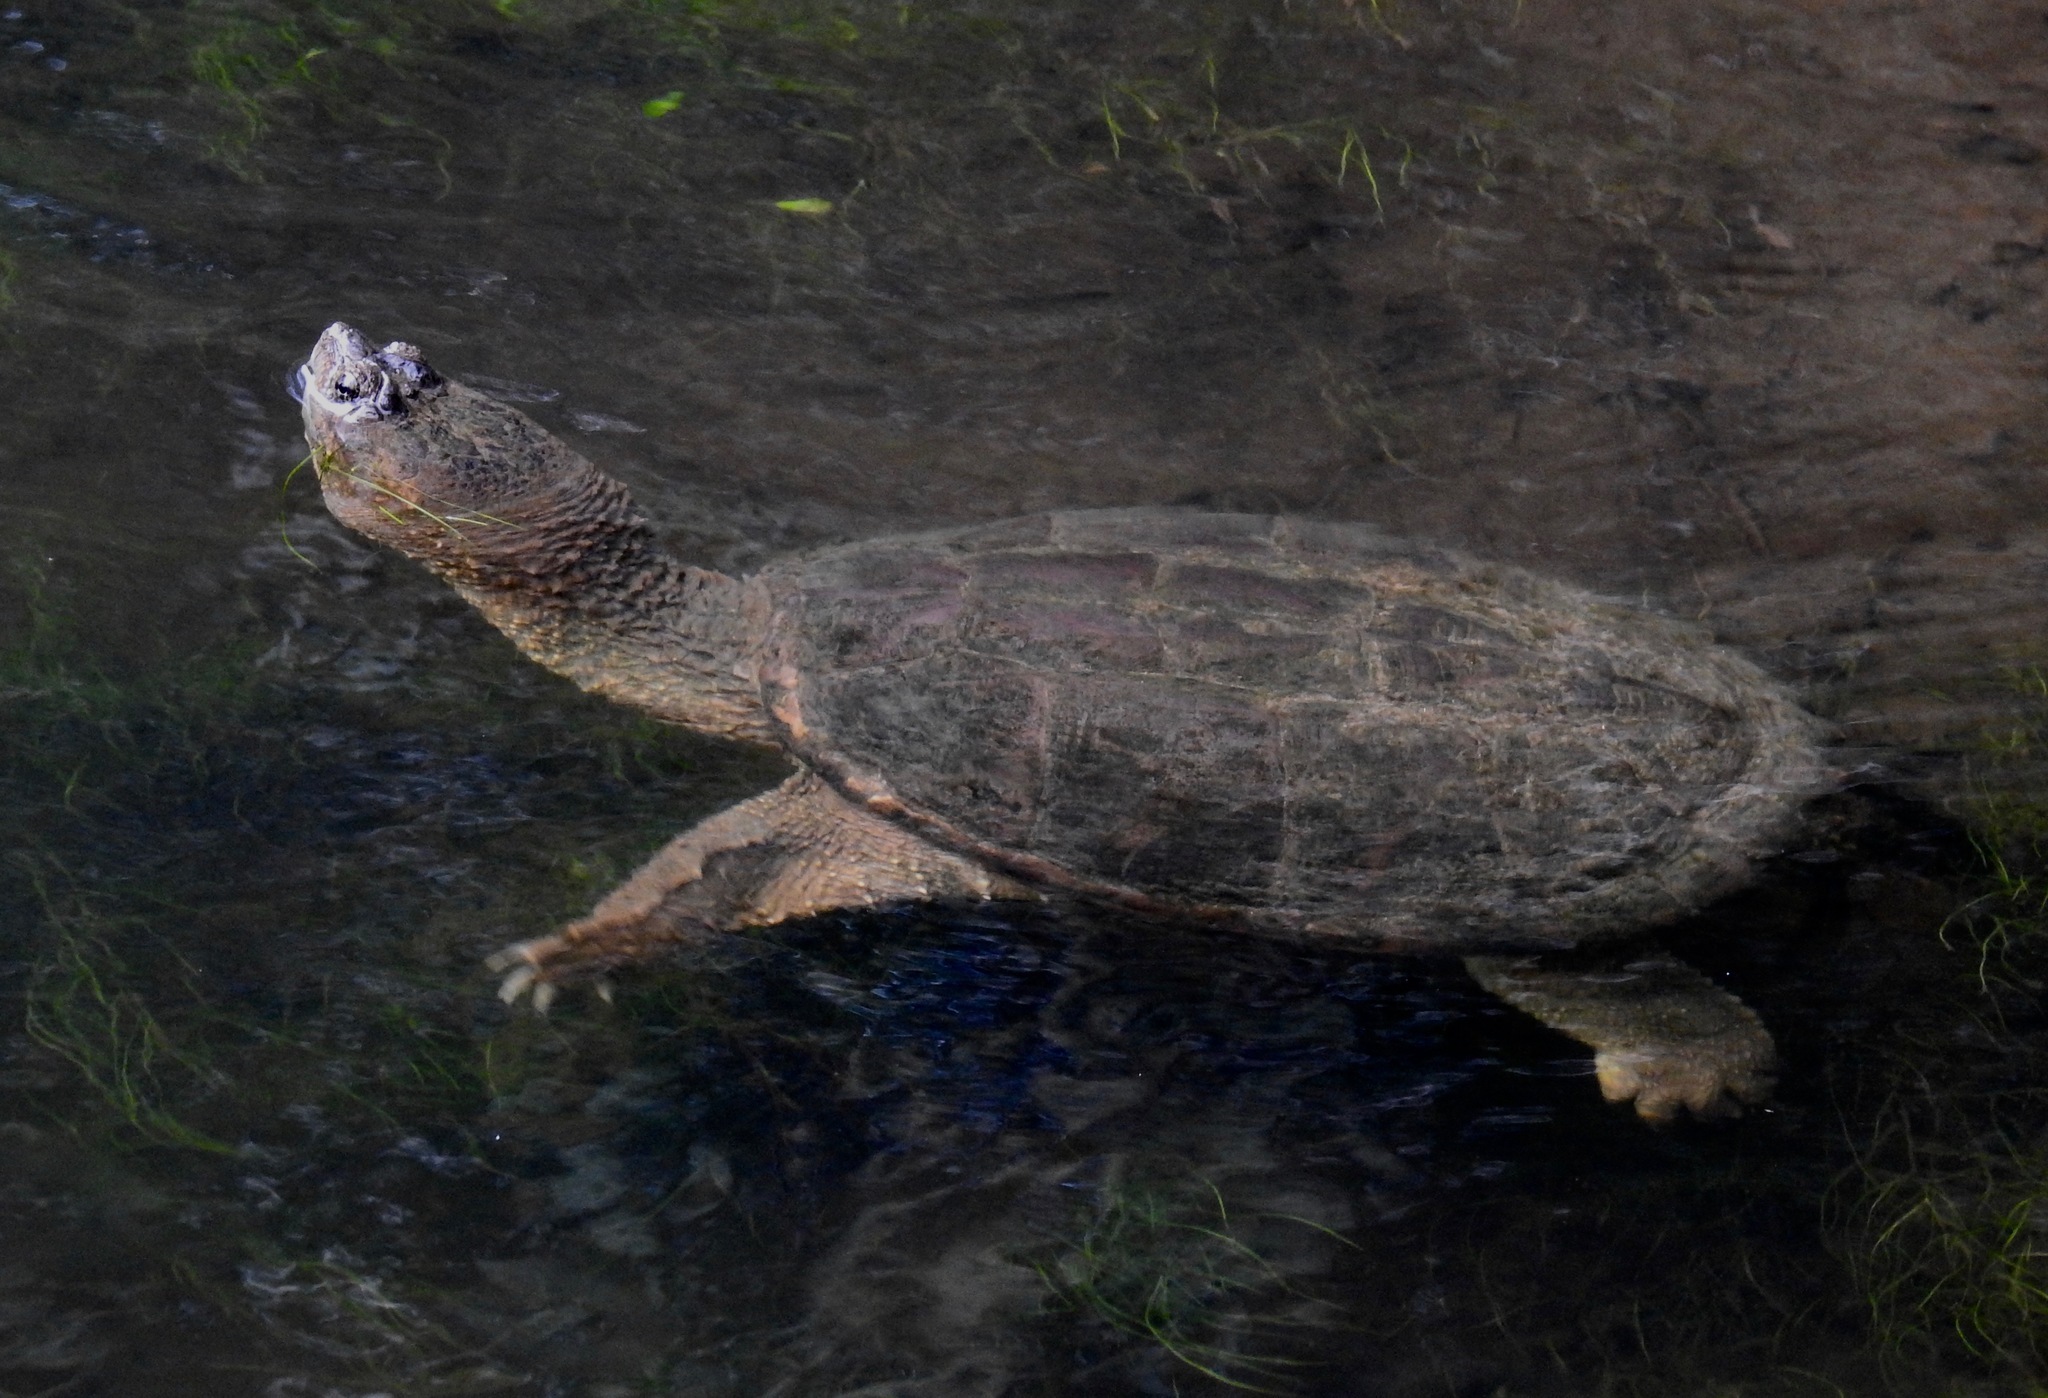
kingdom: Animalia
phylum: Chordata
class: Testudines
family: Chelydridae
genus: Chelydra
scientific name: Chelydra serpentina
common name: Common snapping turtle
